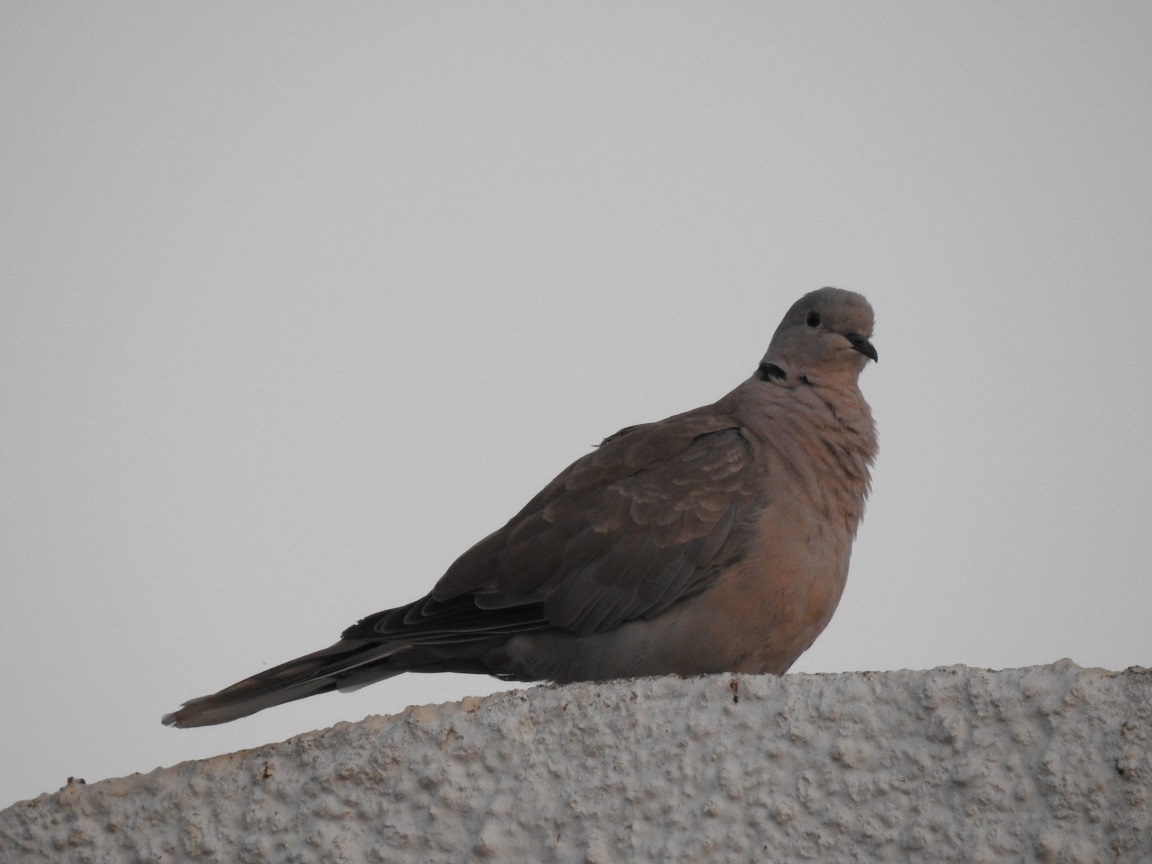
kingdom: Animalia
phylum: Chordata
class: Aves
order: Columbiformes
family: Columbidae
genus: Streptopelia
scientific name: Streptopelia decaocto
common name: Eurasian collared dove
